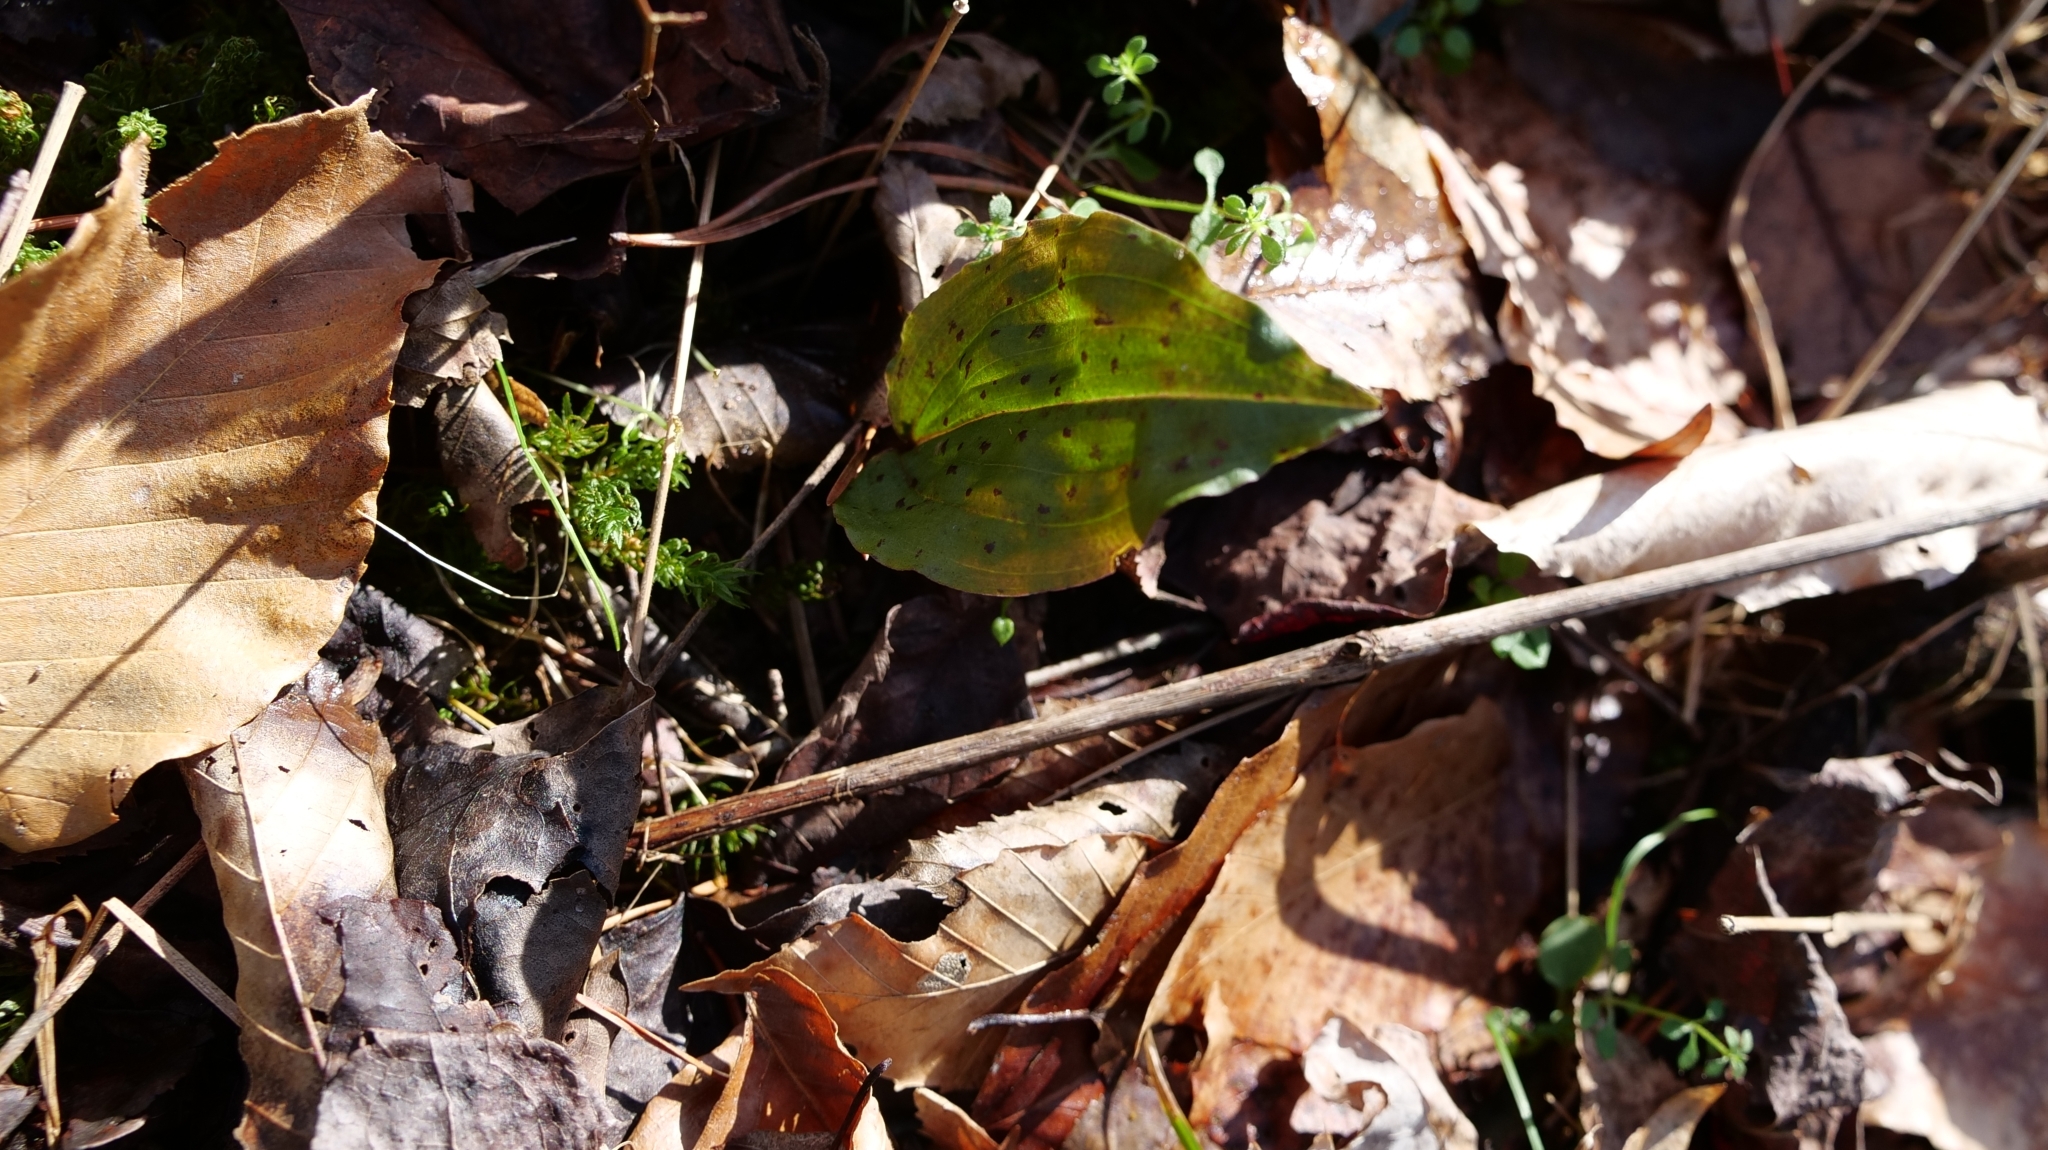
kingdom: Plantae
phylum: Tracheophyta
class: Liliopsida
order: Asparagales
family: Orchidaceae
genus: Tipularia
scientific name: Tipularia discolor
